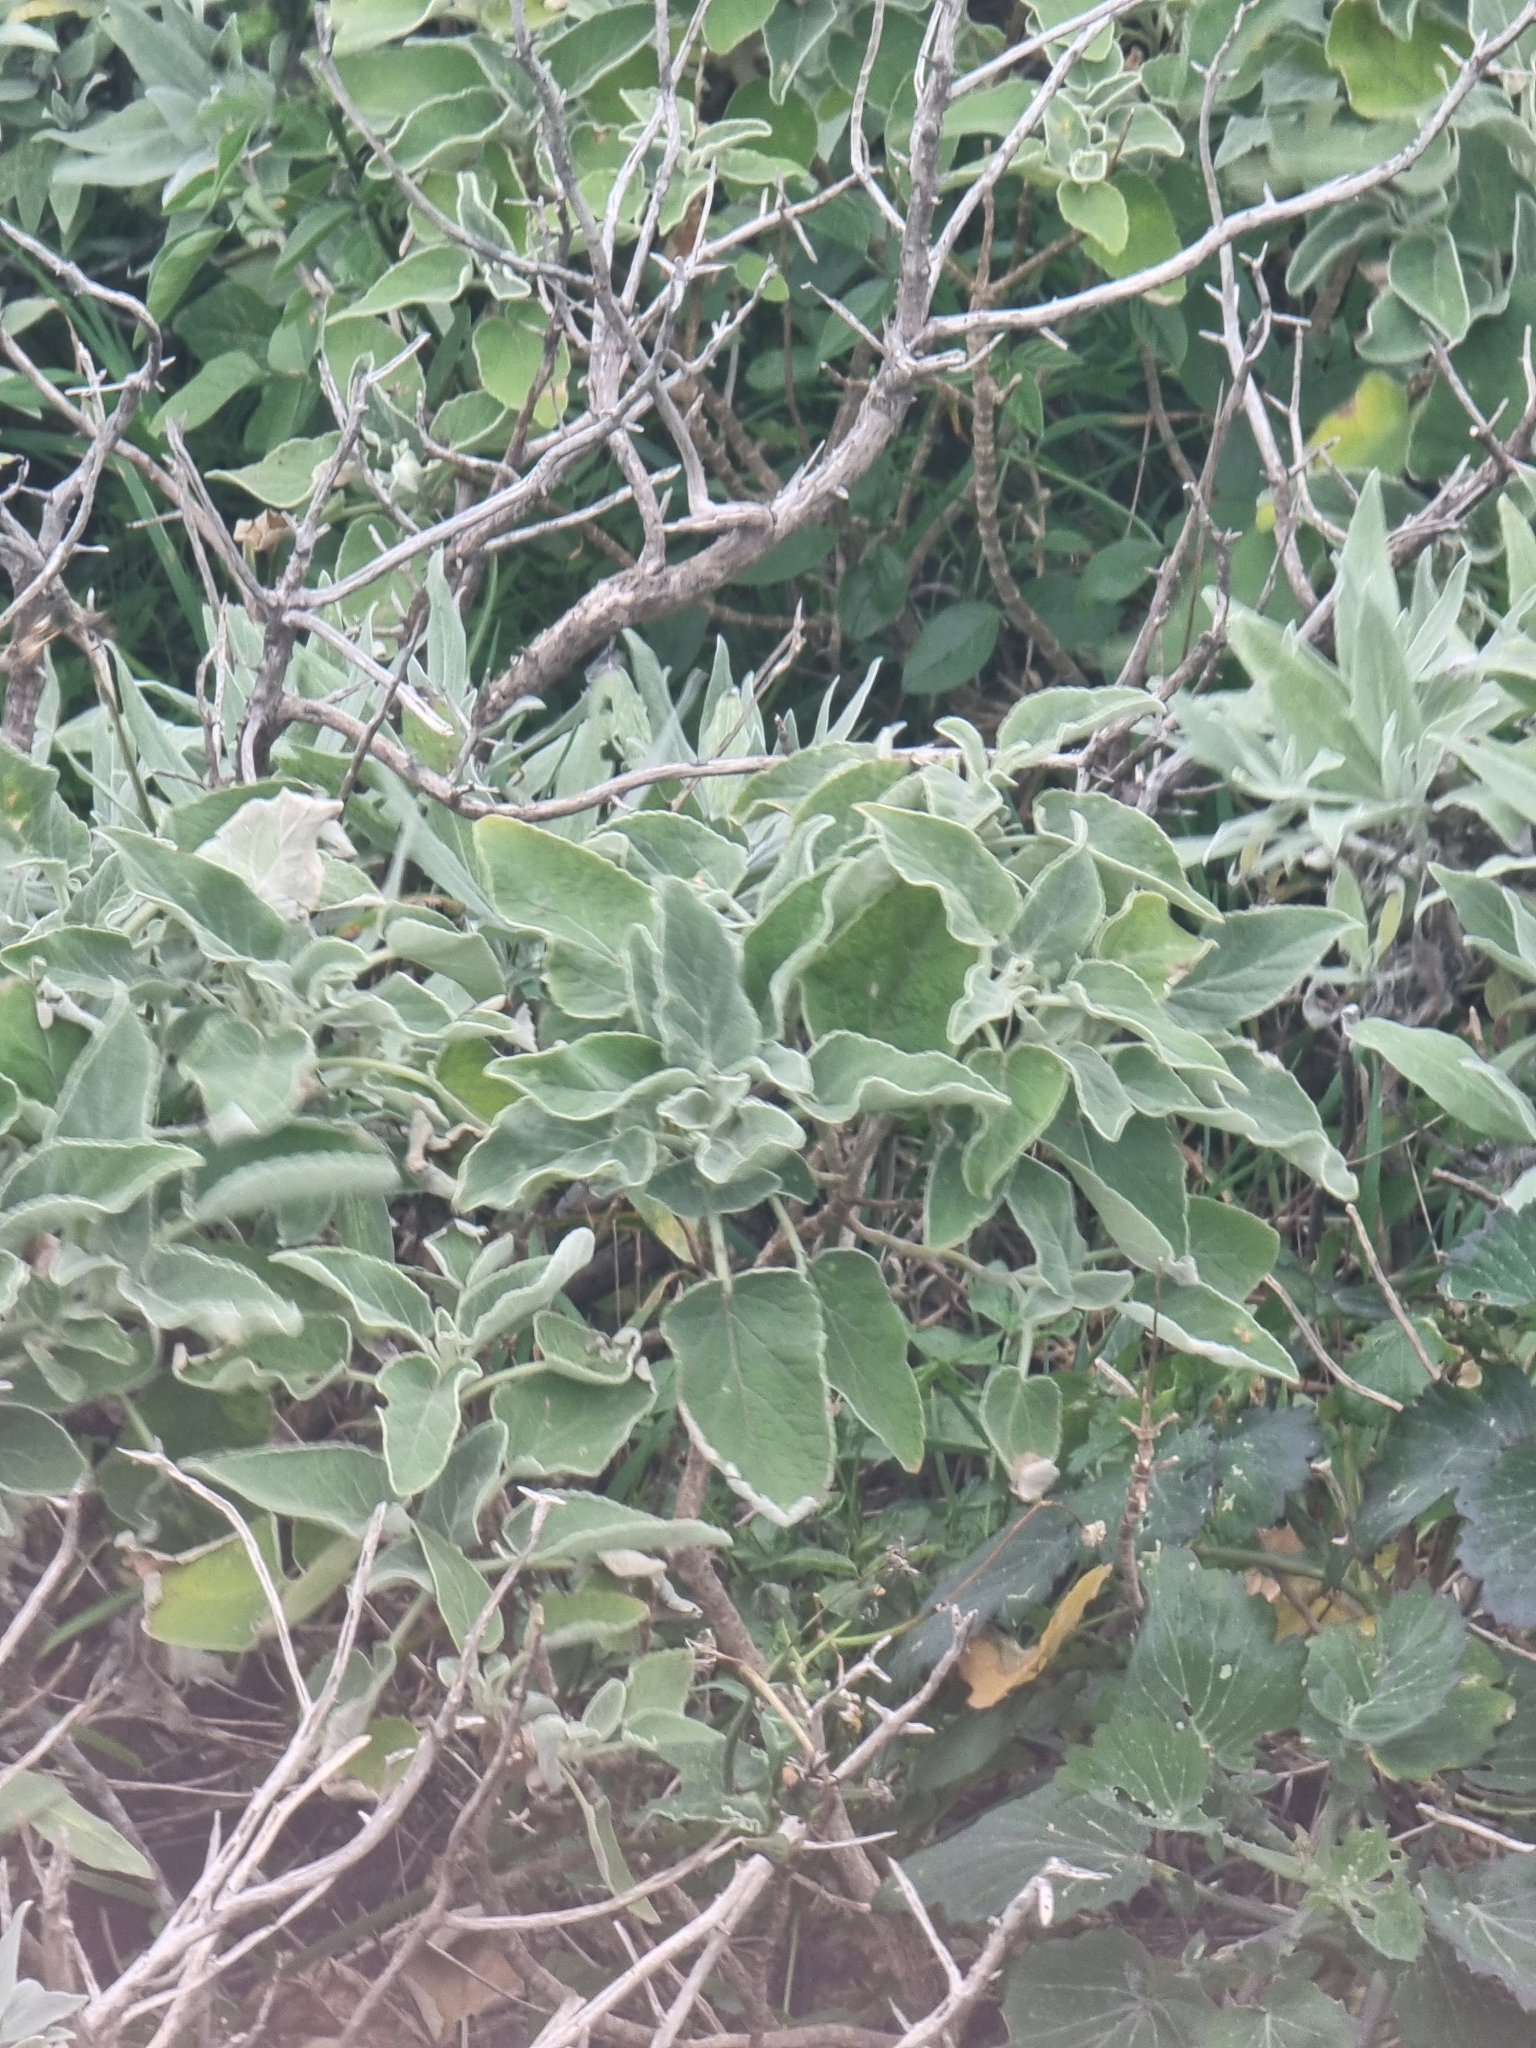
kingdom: Plantae
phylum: Tracheophyta
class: Magnoliopsida
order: Lamiales
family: Lamiaceae
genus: Sideritis
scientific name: Sideritis candicans
